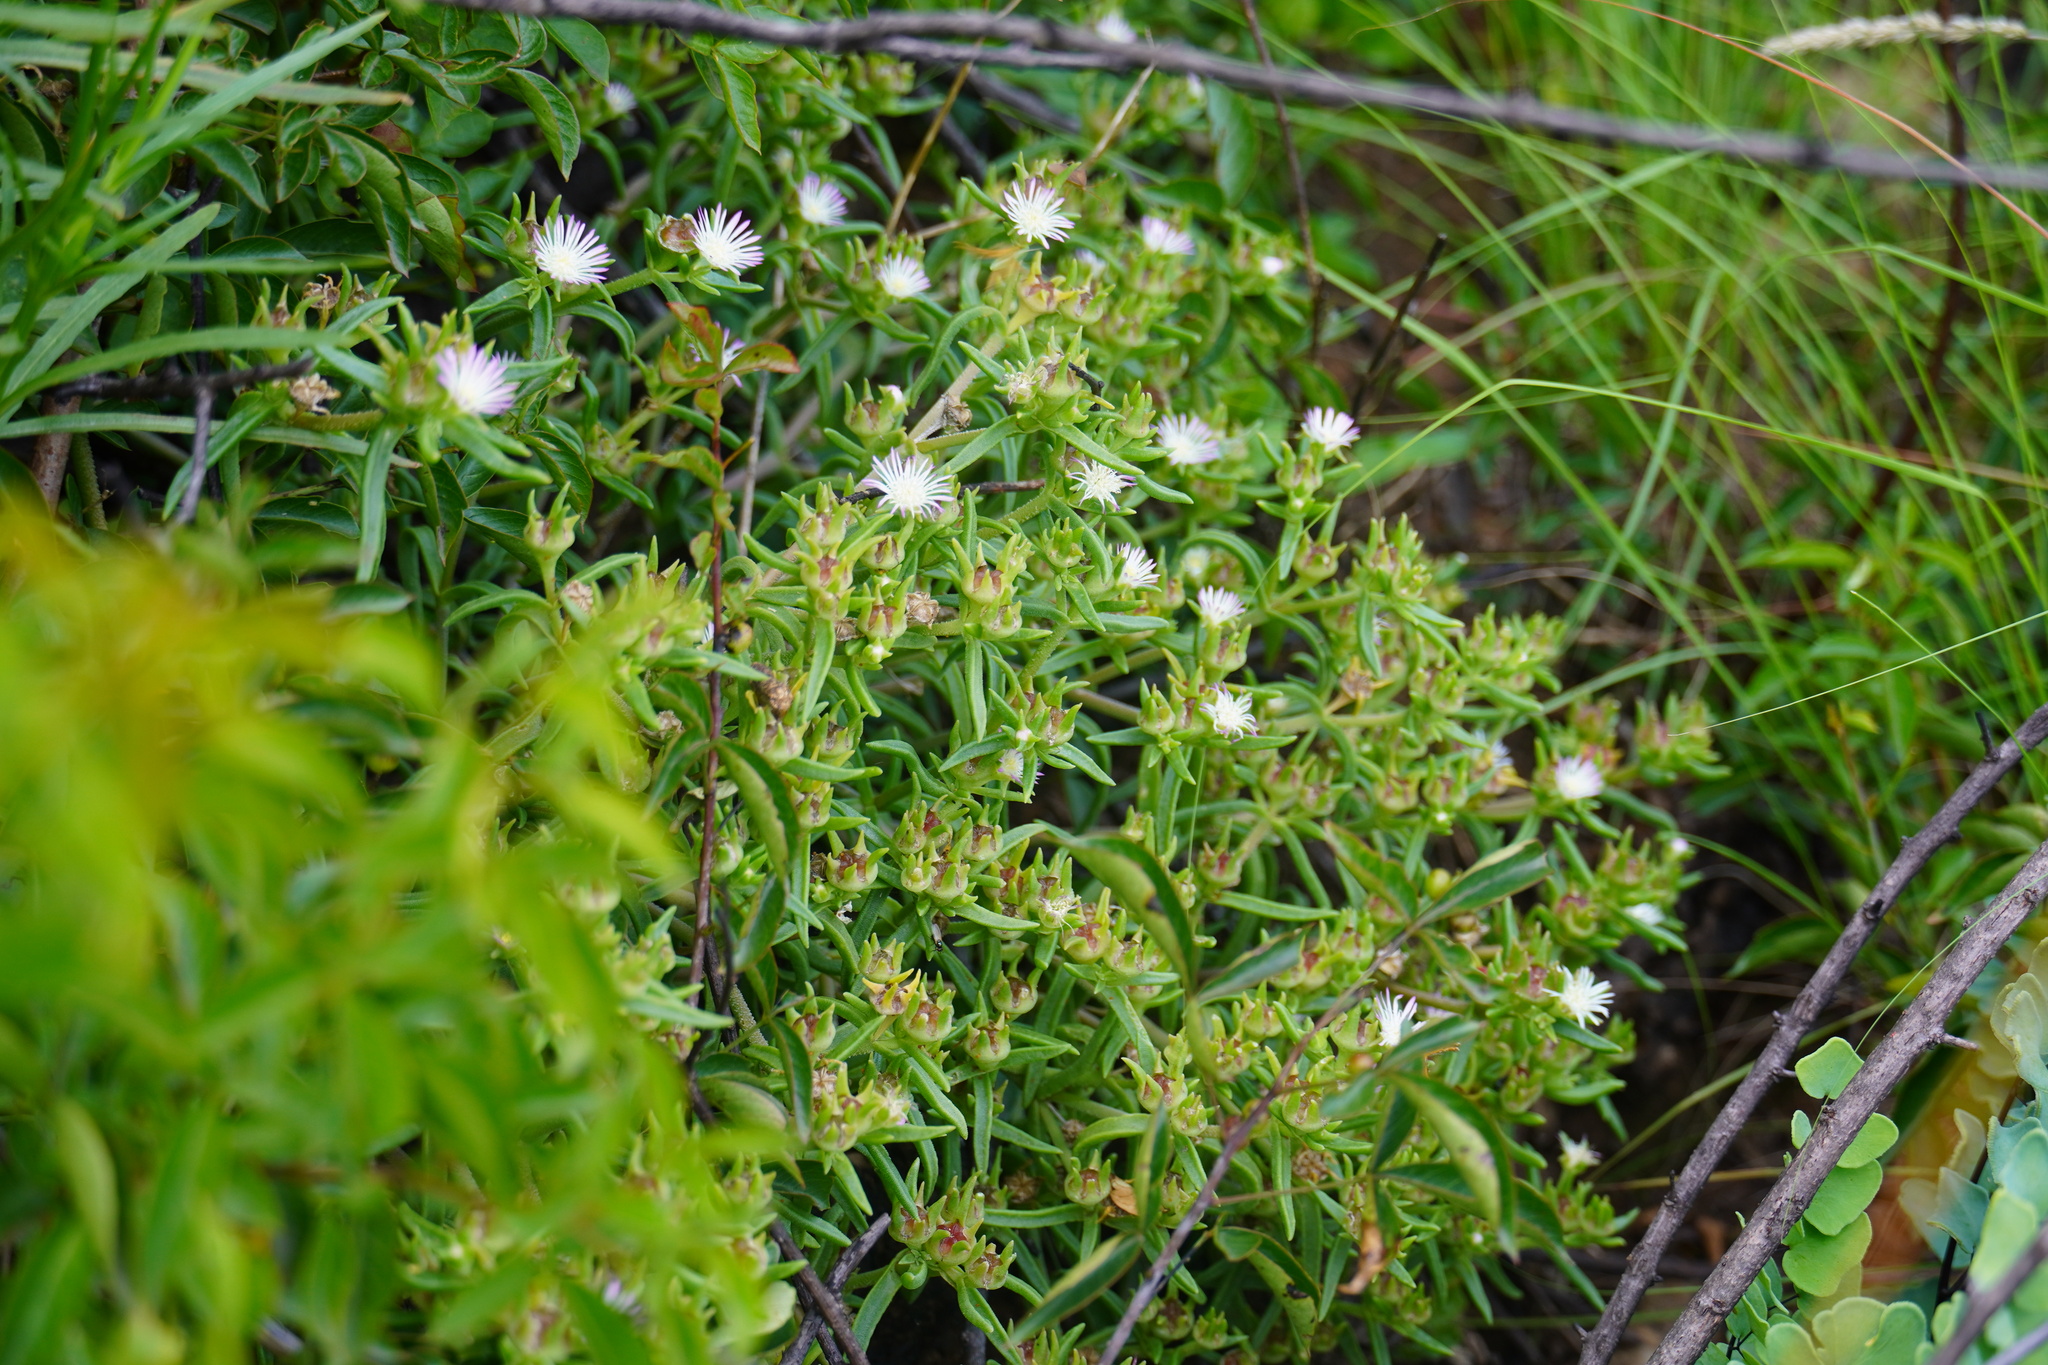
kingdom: Plantae
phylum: Tracheophyta
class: Magnoliopsida
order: Caryophyllales
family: Aizoaceae
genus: Delosperma
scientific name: Delosperma herbeum
